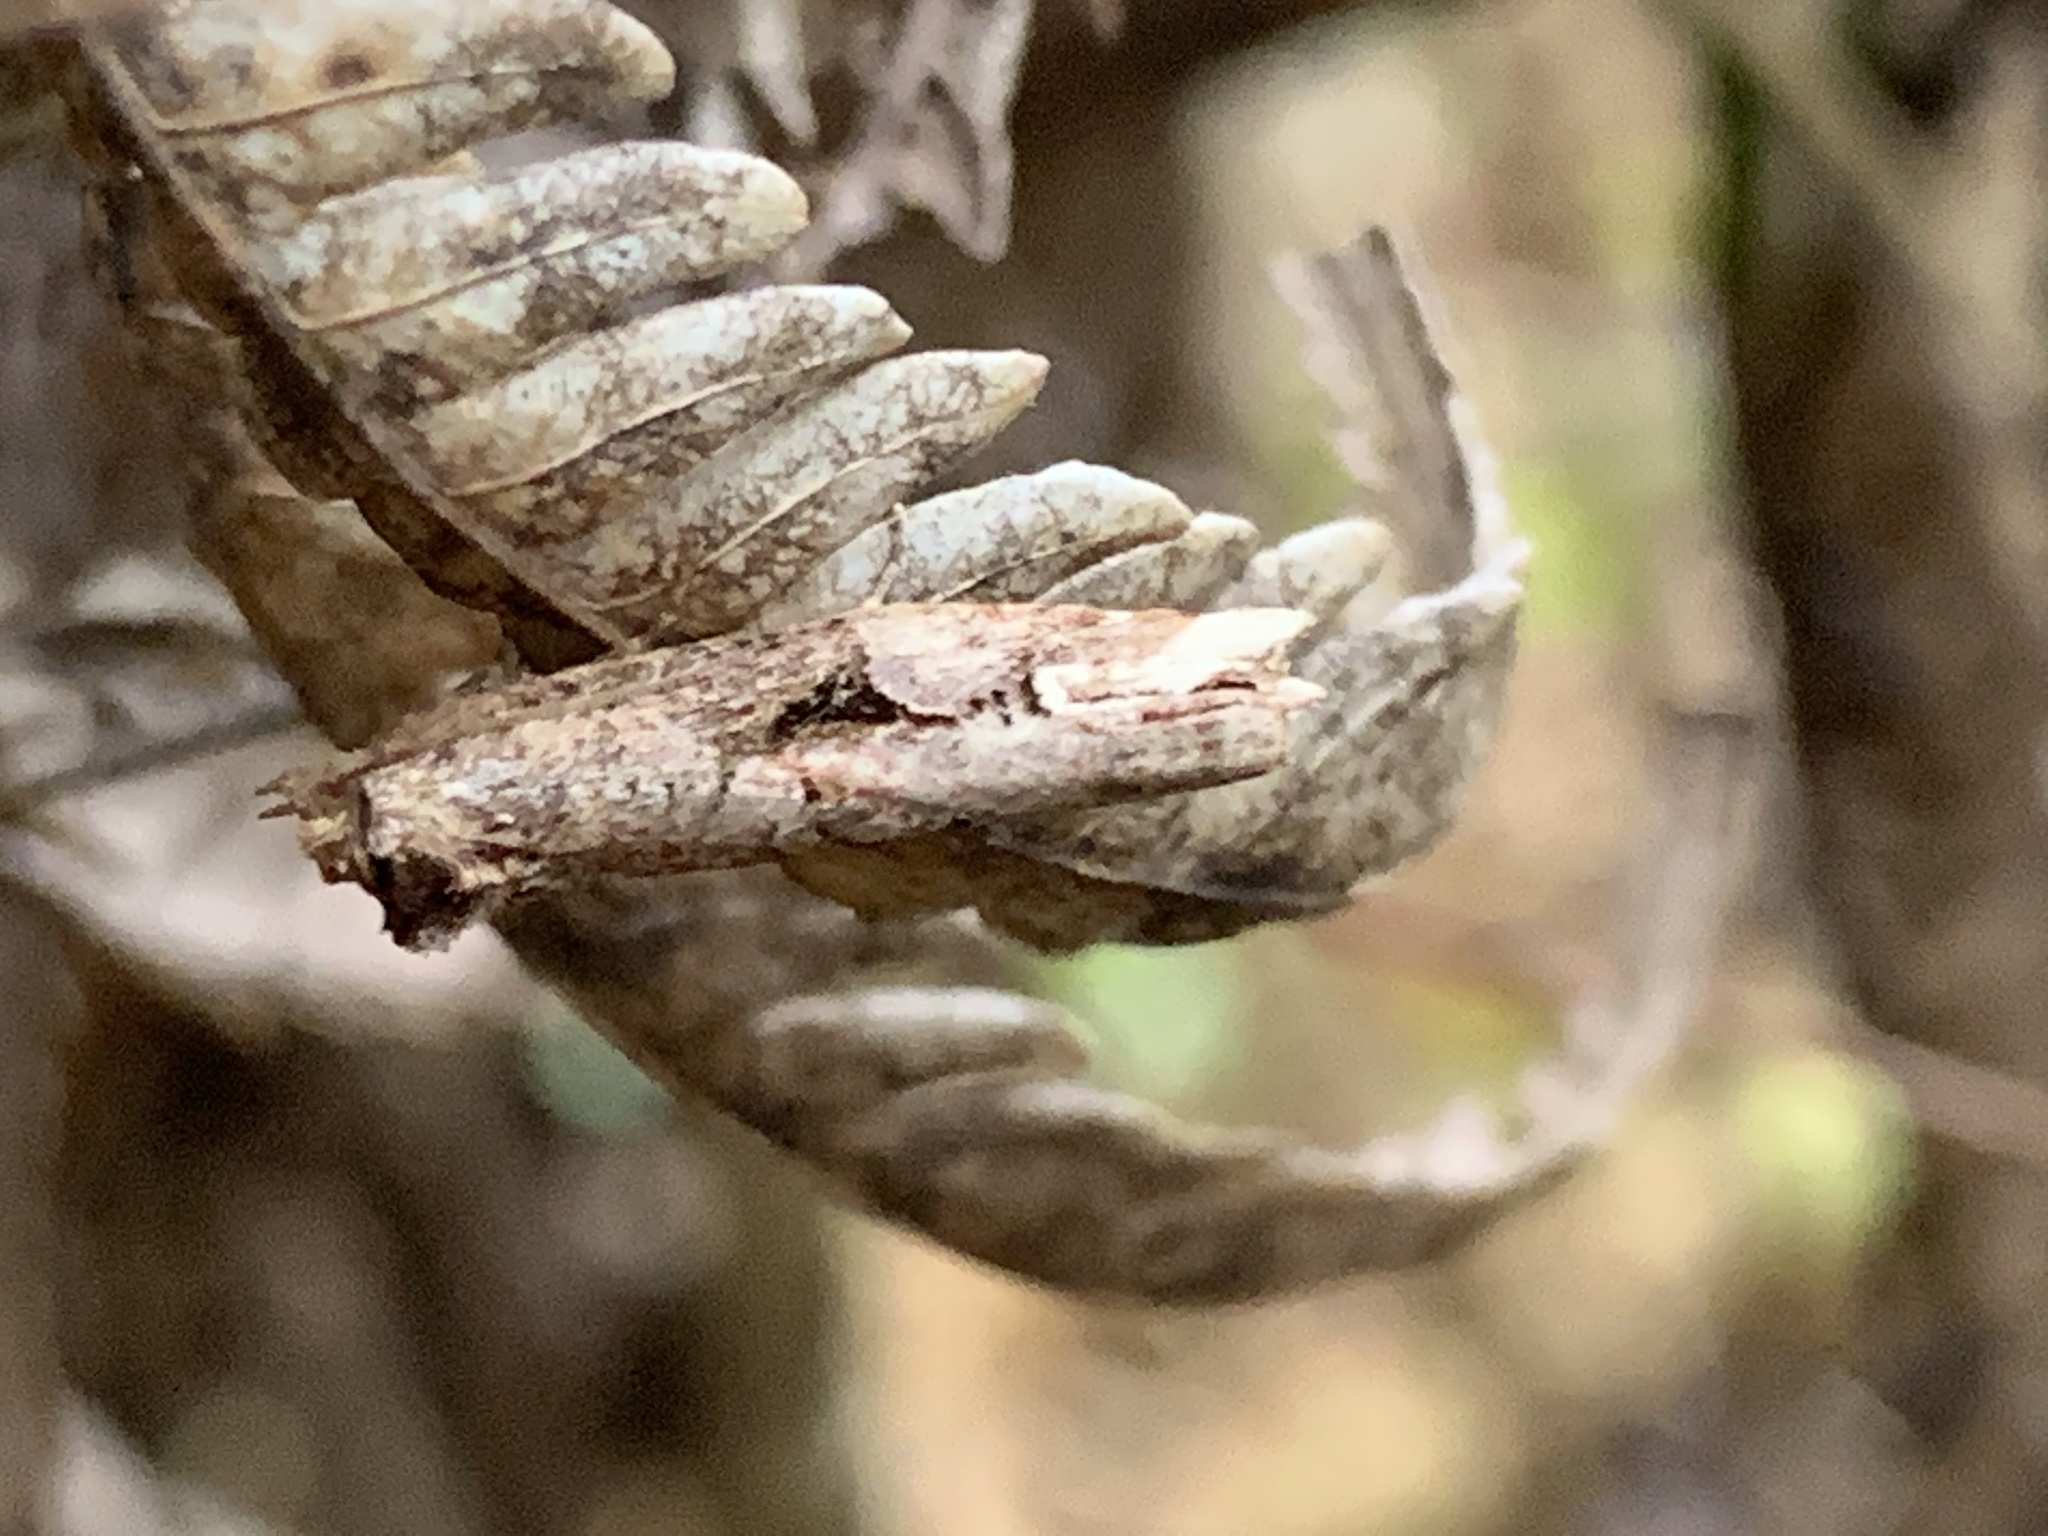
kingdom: Animalia
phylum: Arthropoda
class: Insecta
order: Lepidoptera
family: Tortricidae
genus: Epalxiphora
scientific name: Epalxiphora axenana
